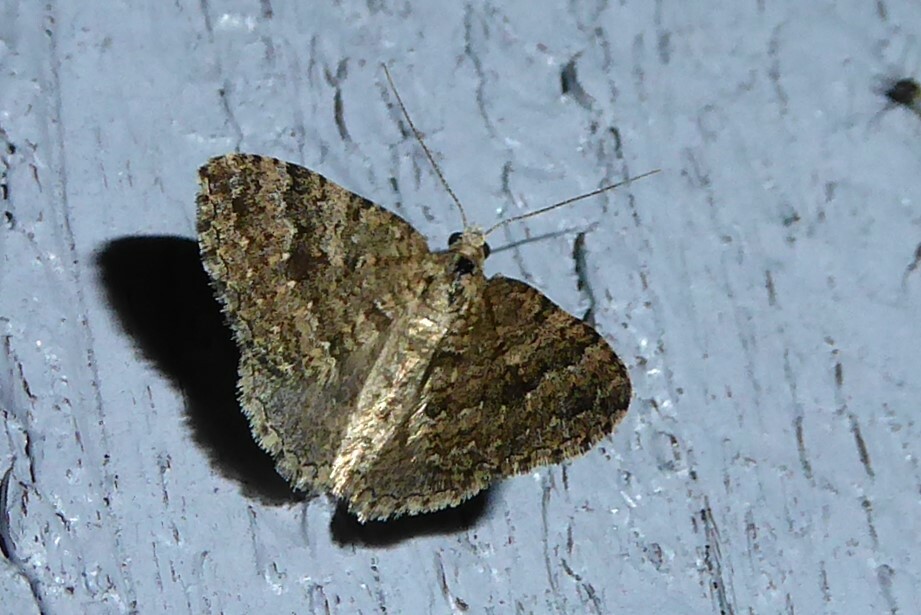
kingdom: Animalia
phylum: Arthropoda
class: Insecta
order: Lepidoptera
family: Geometridae
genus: Helastia
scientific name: Helastia corcularia
